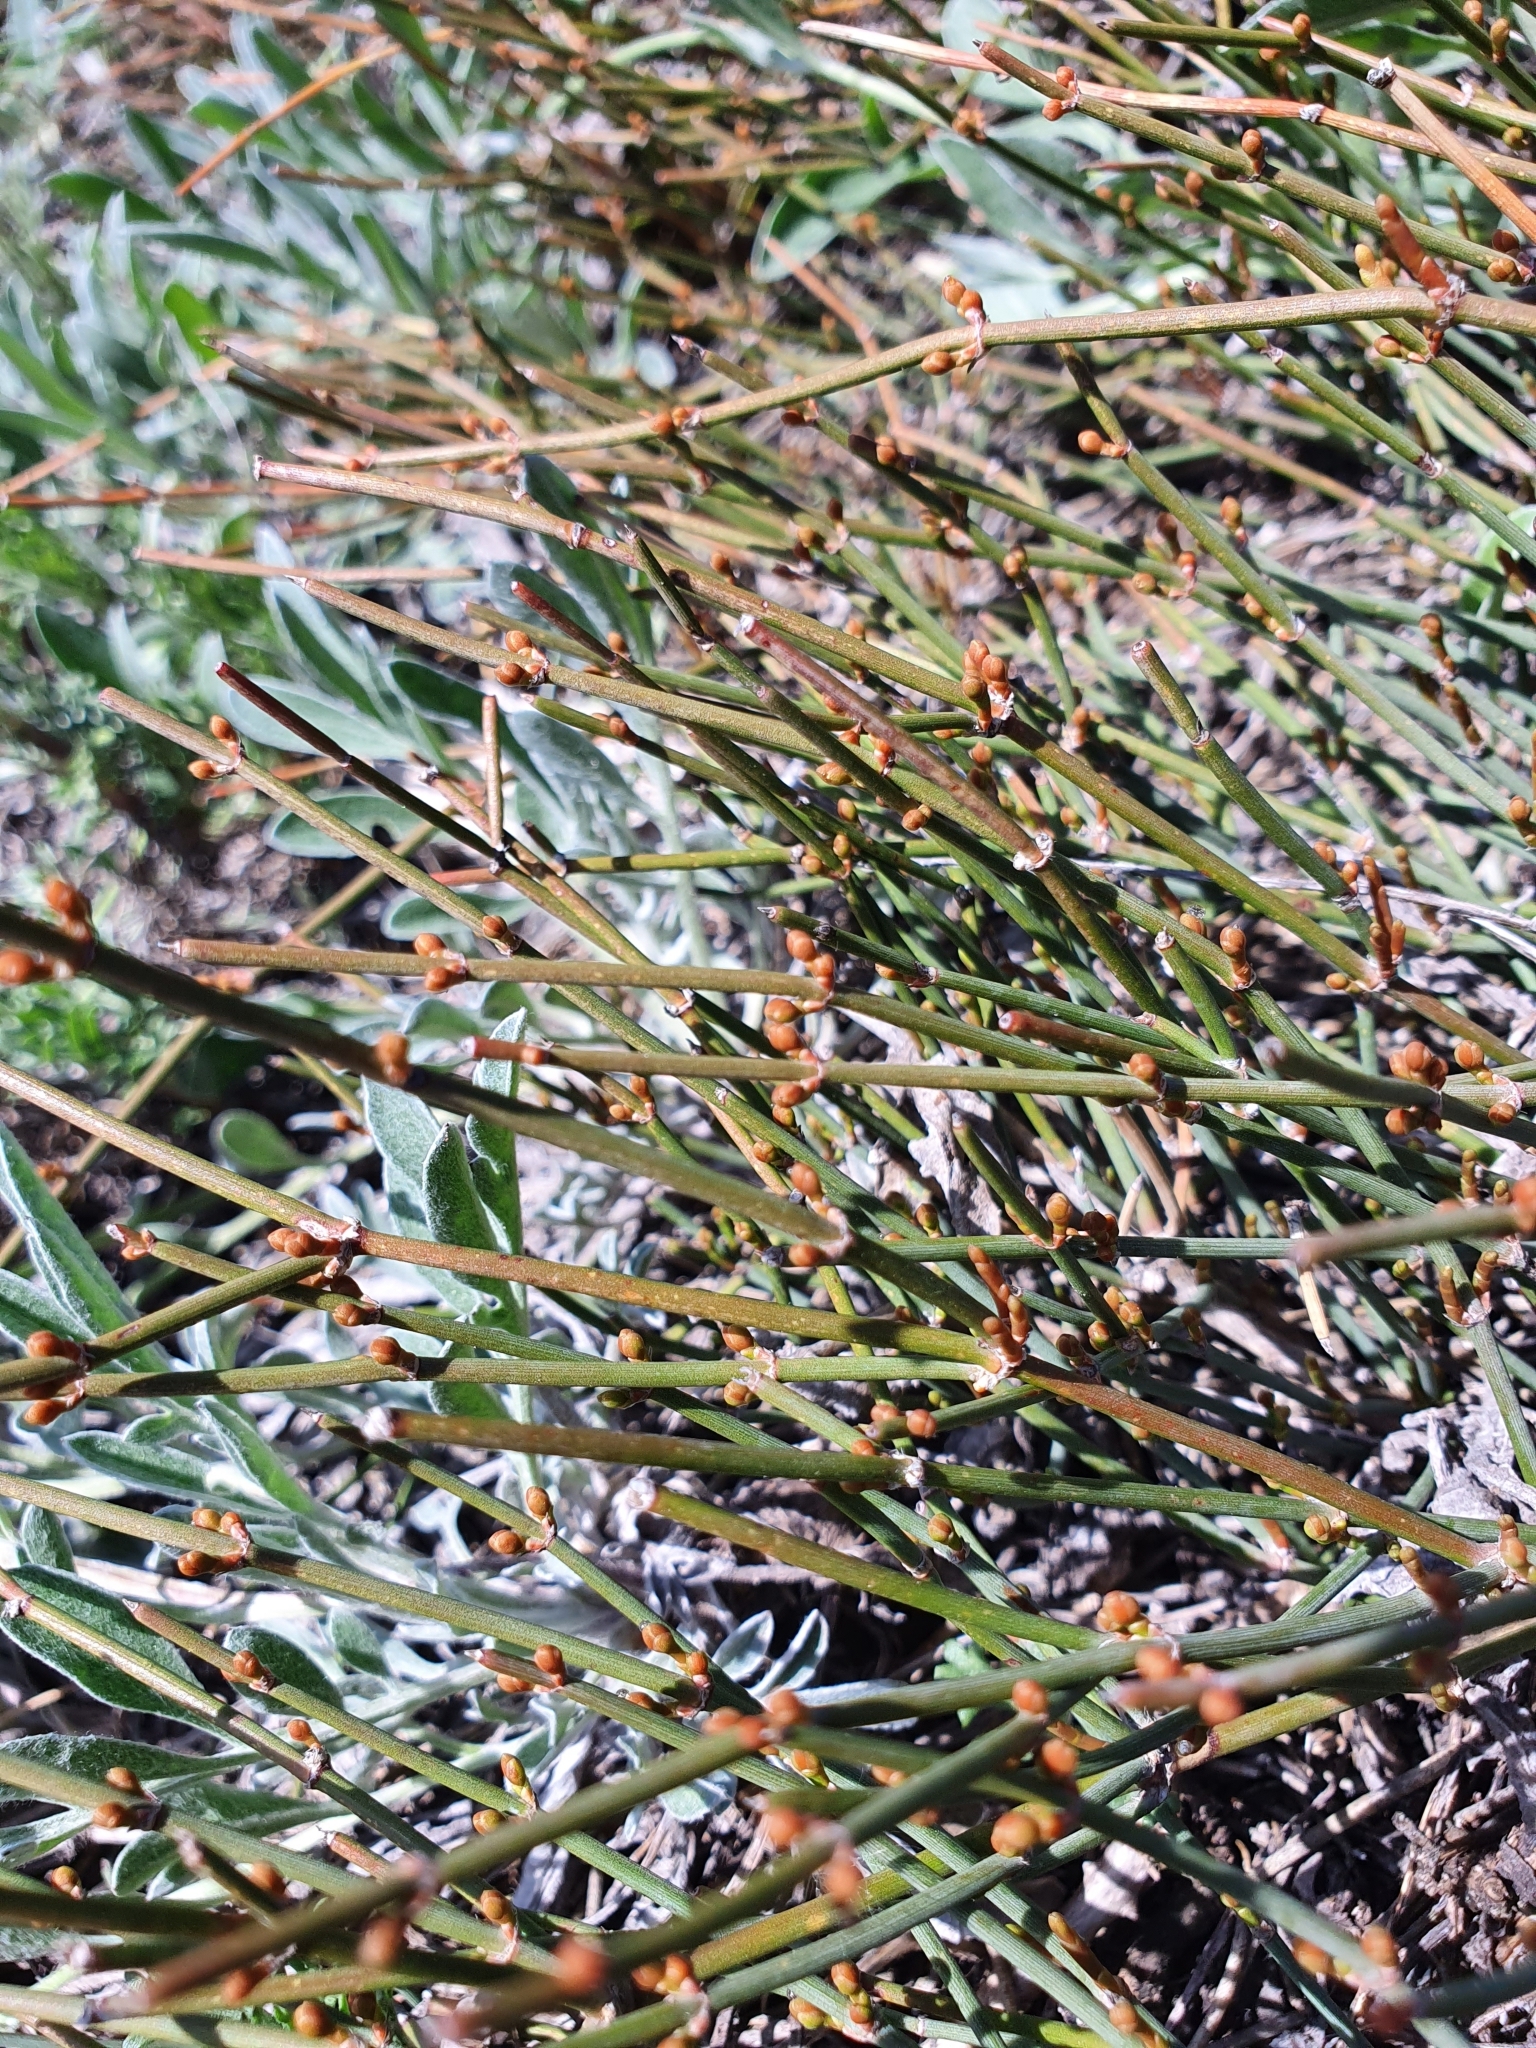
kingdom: Plantae
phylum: Tracheophyta
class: Gnetopsida
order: Ephedrales
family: Ephedraceae
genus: Ephedra
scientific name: Ephedra distachya
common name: Sea grape
